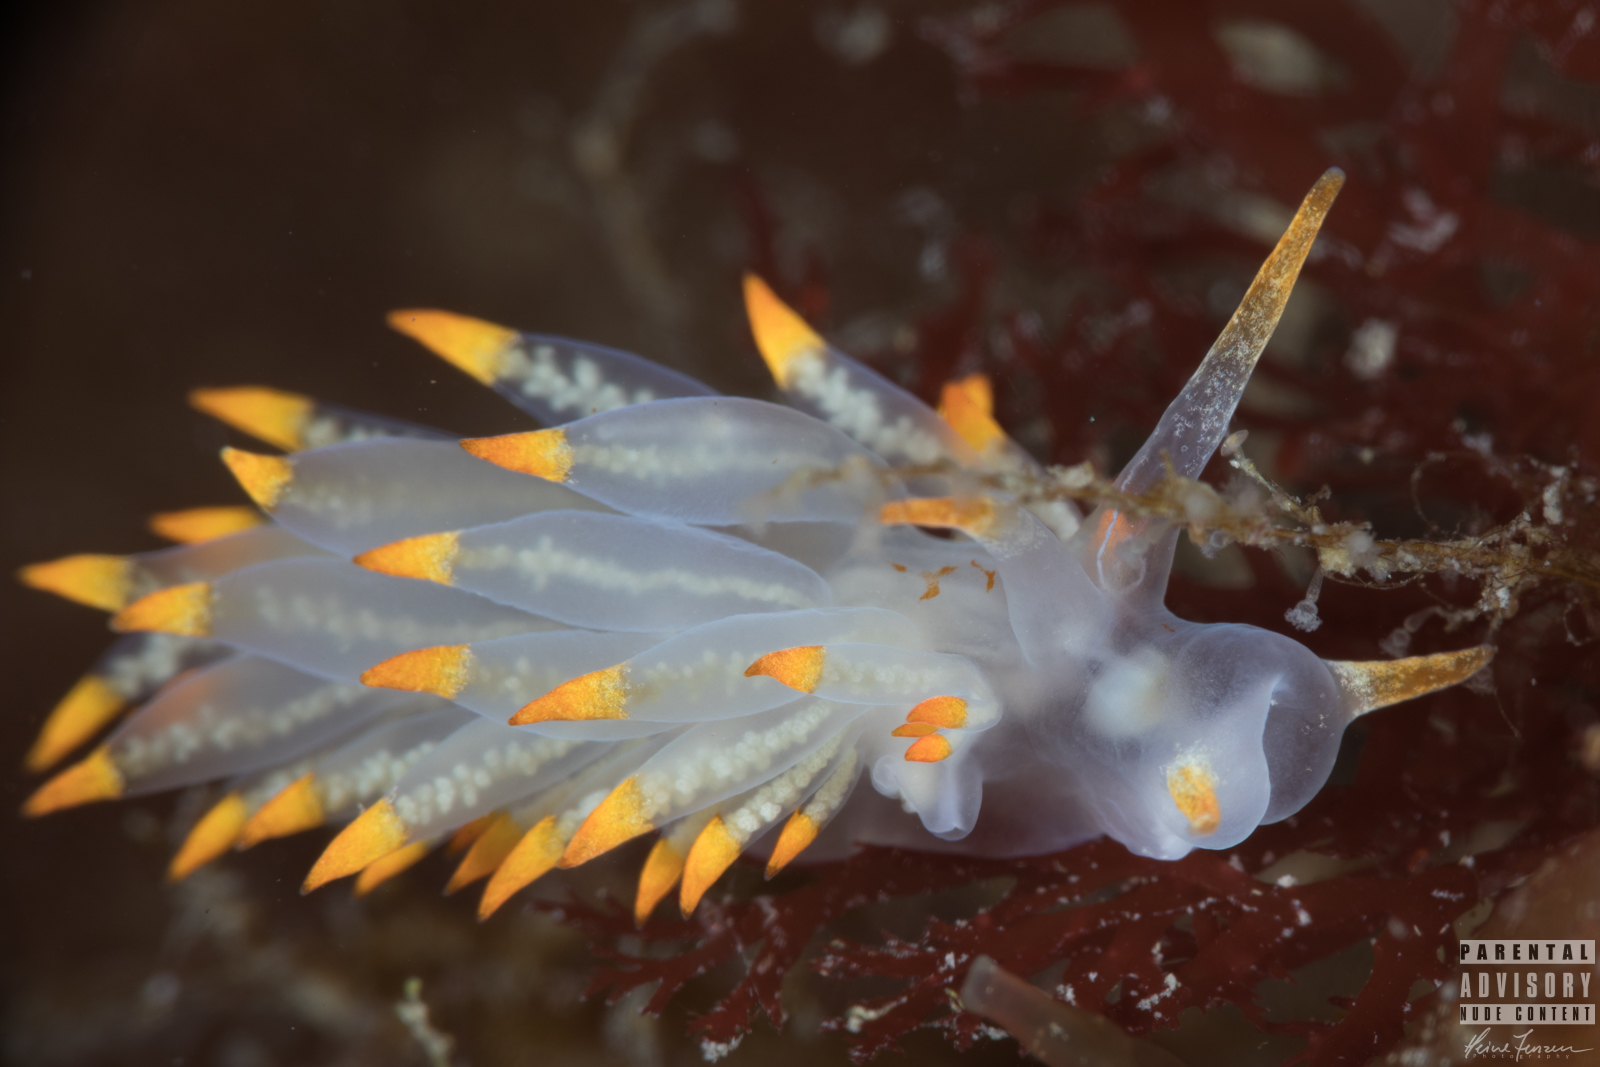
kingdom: Animalia
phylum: Mollusca
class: Gastropoda
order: Nudibranchia
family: Eubranchidae
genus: Amphorina
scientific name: Amphorina farrani
